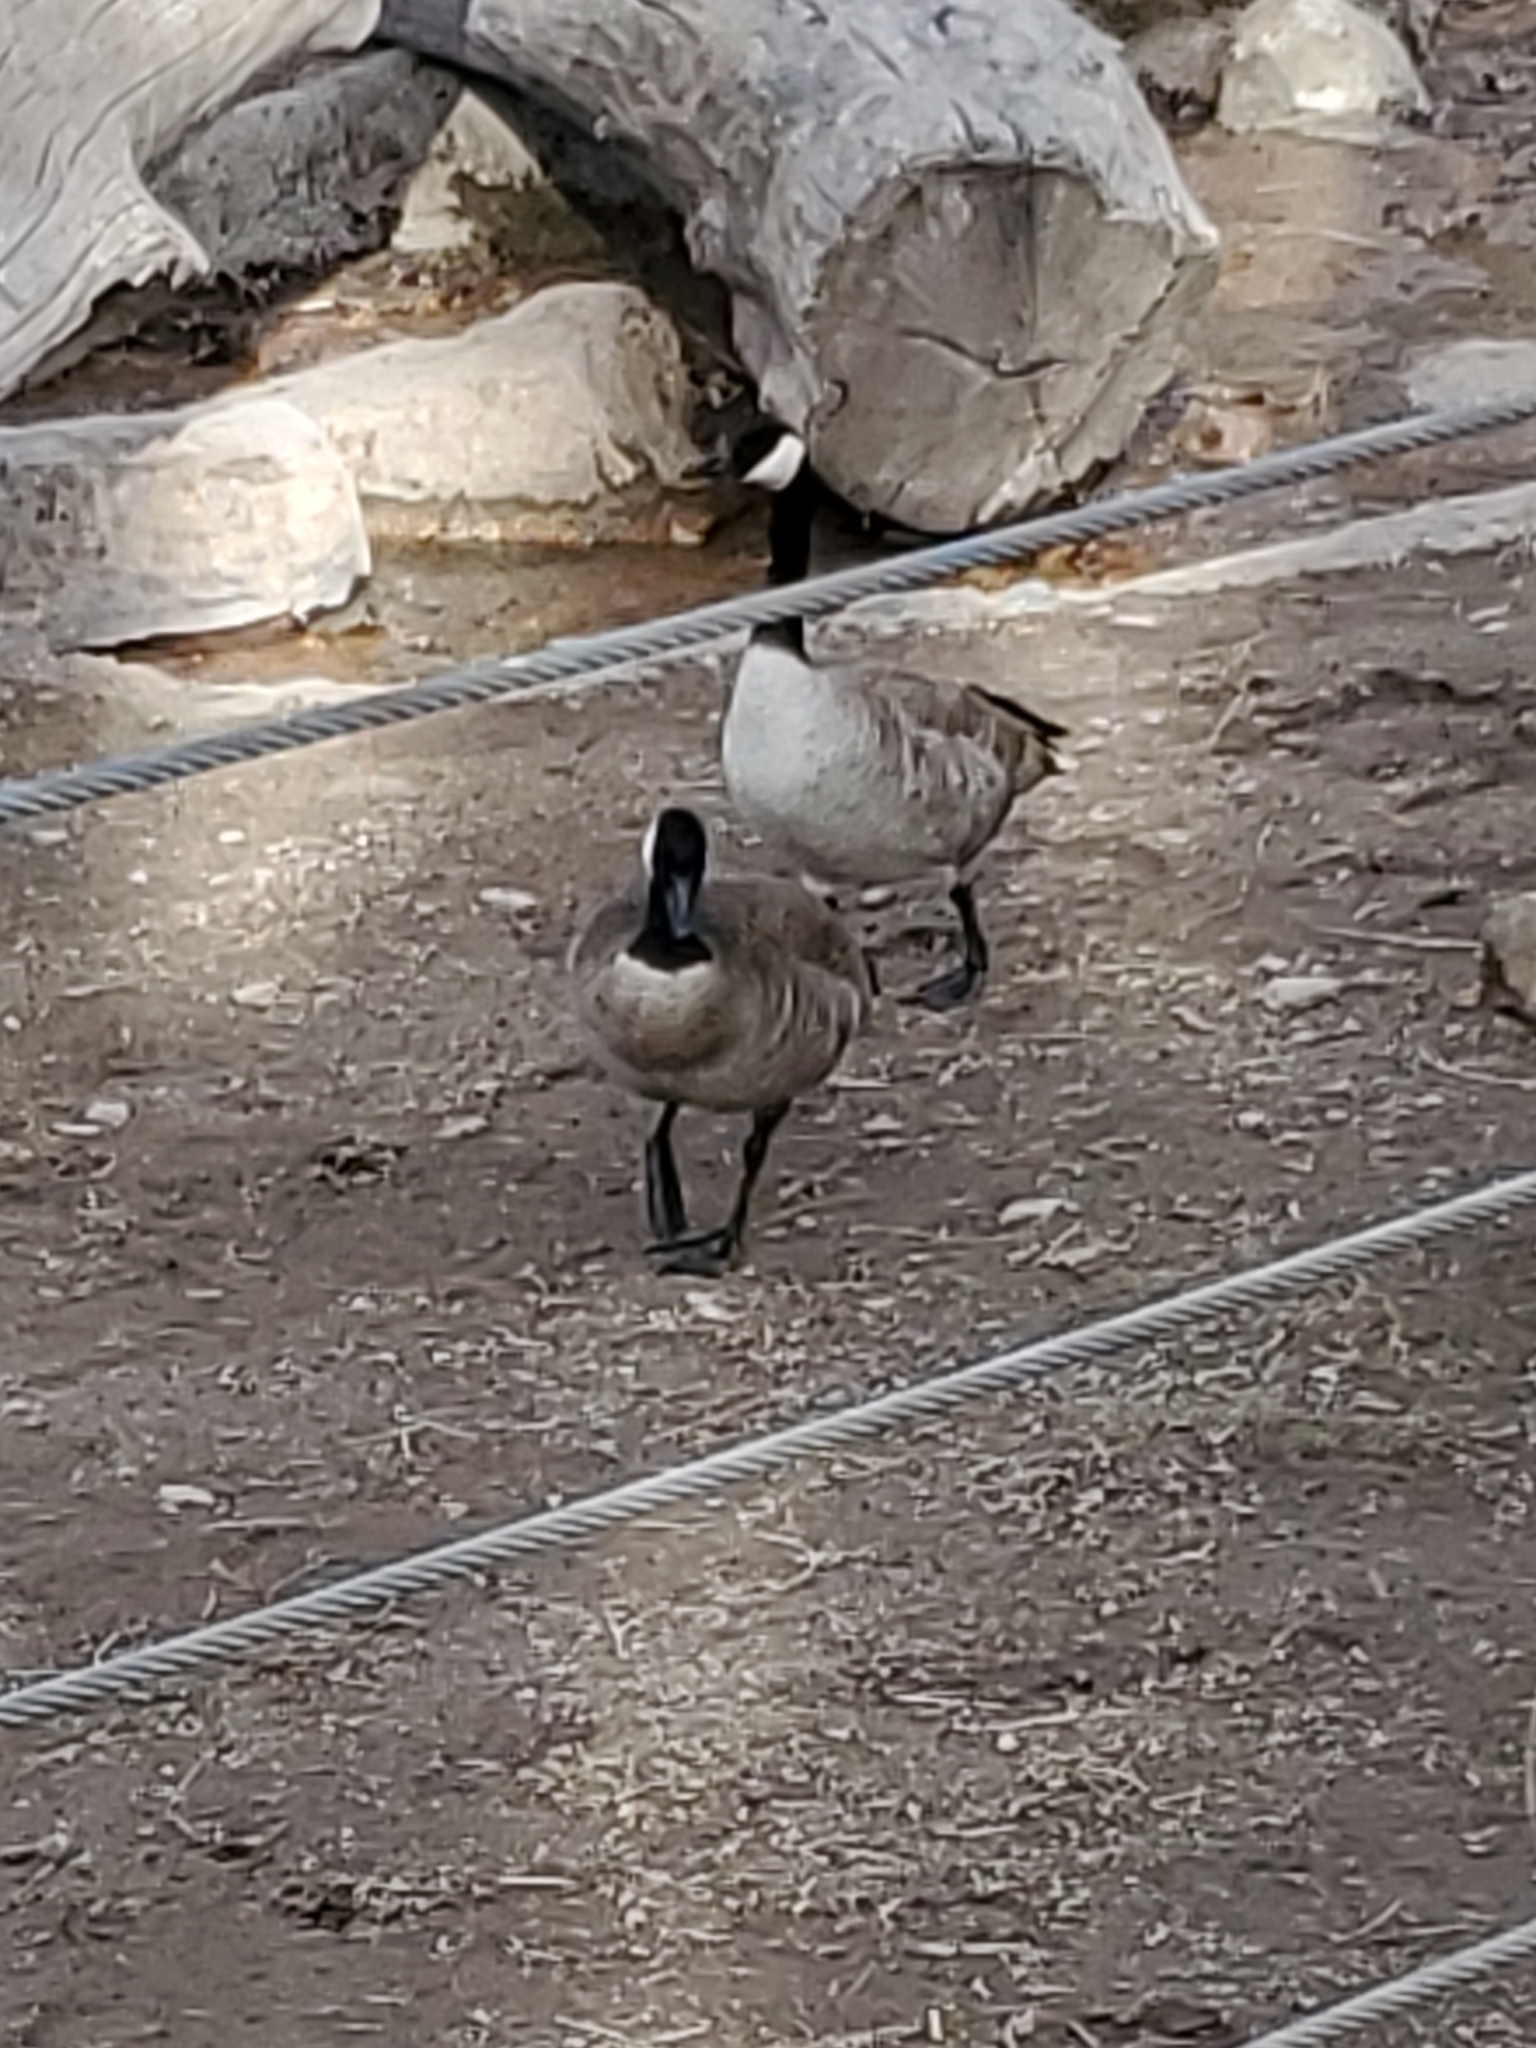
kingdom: Animalia
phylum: Chordata
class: Aves
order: Anseriformes
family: Anatidae
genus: Branta
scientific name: Branta canadensis
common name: Canada goose
